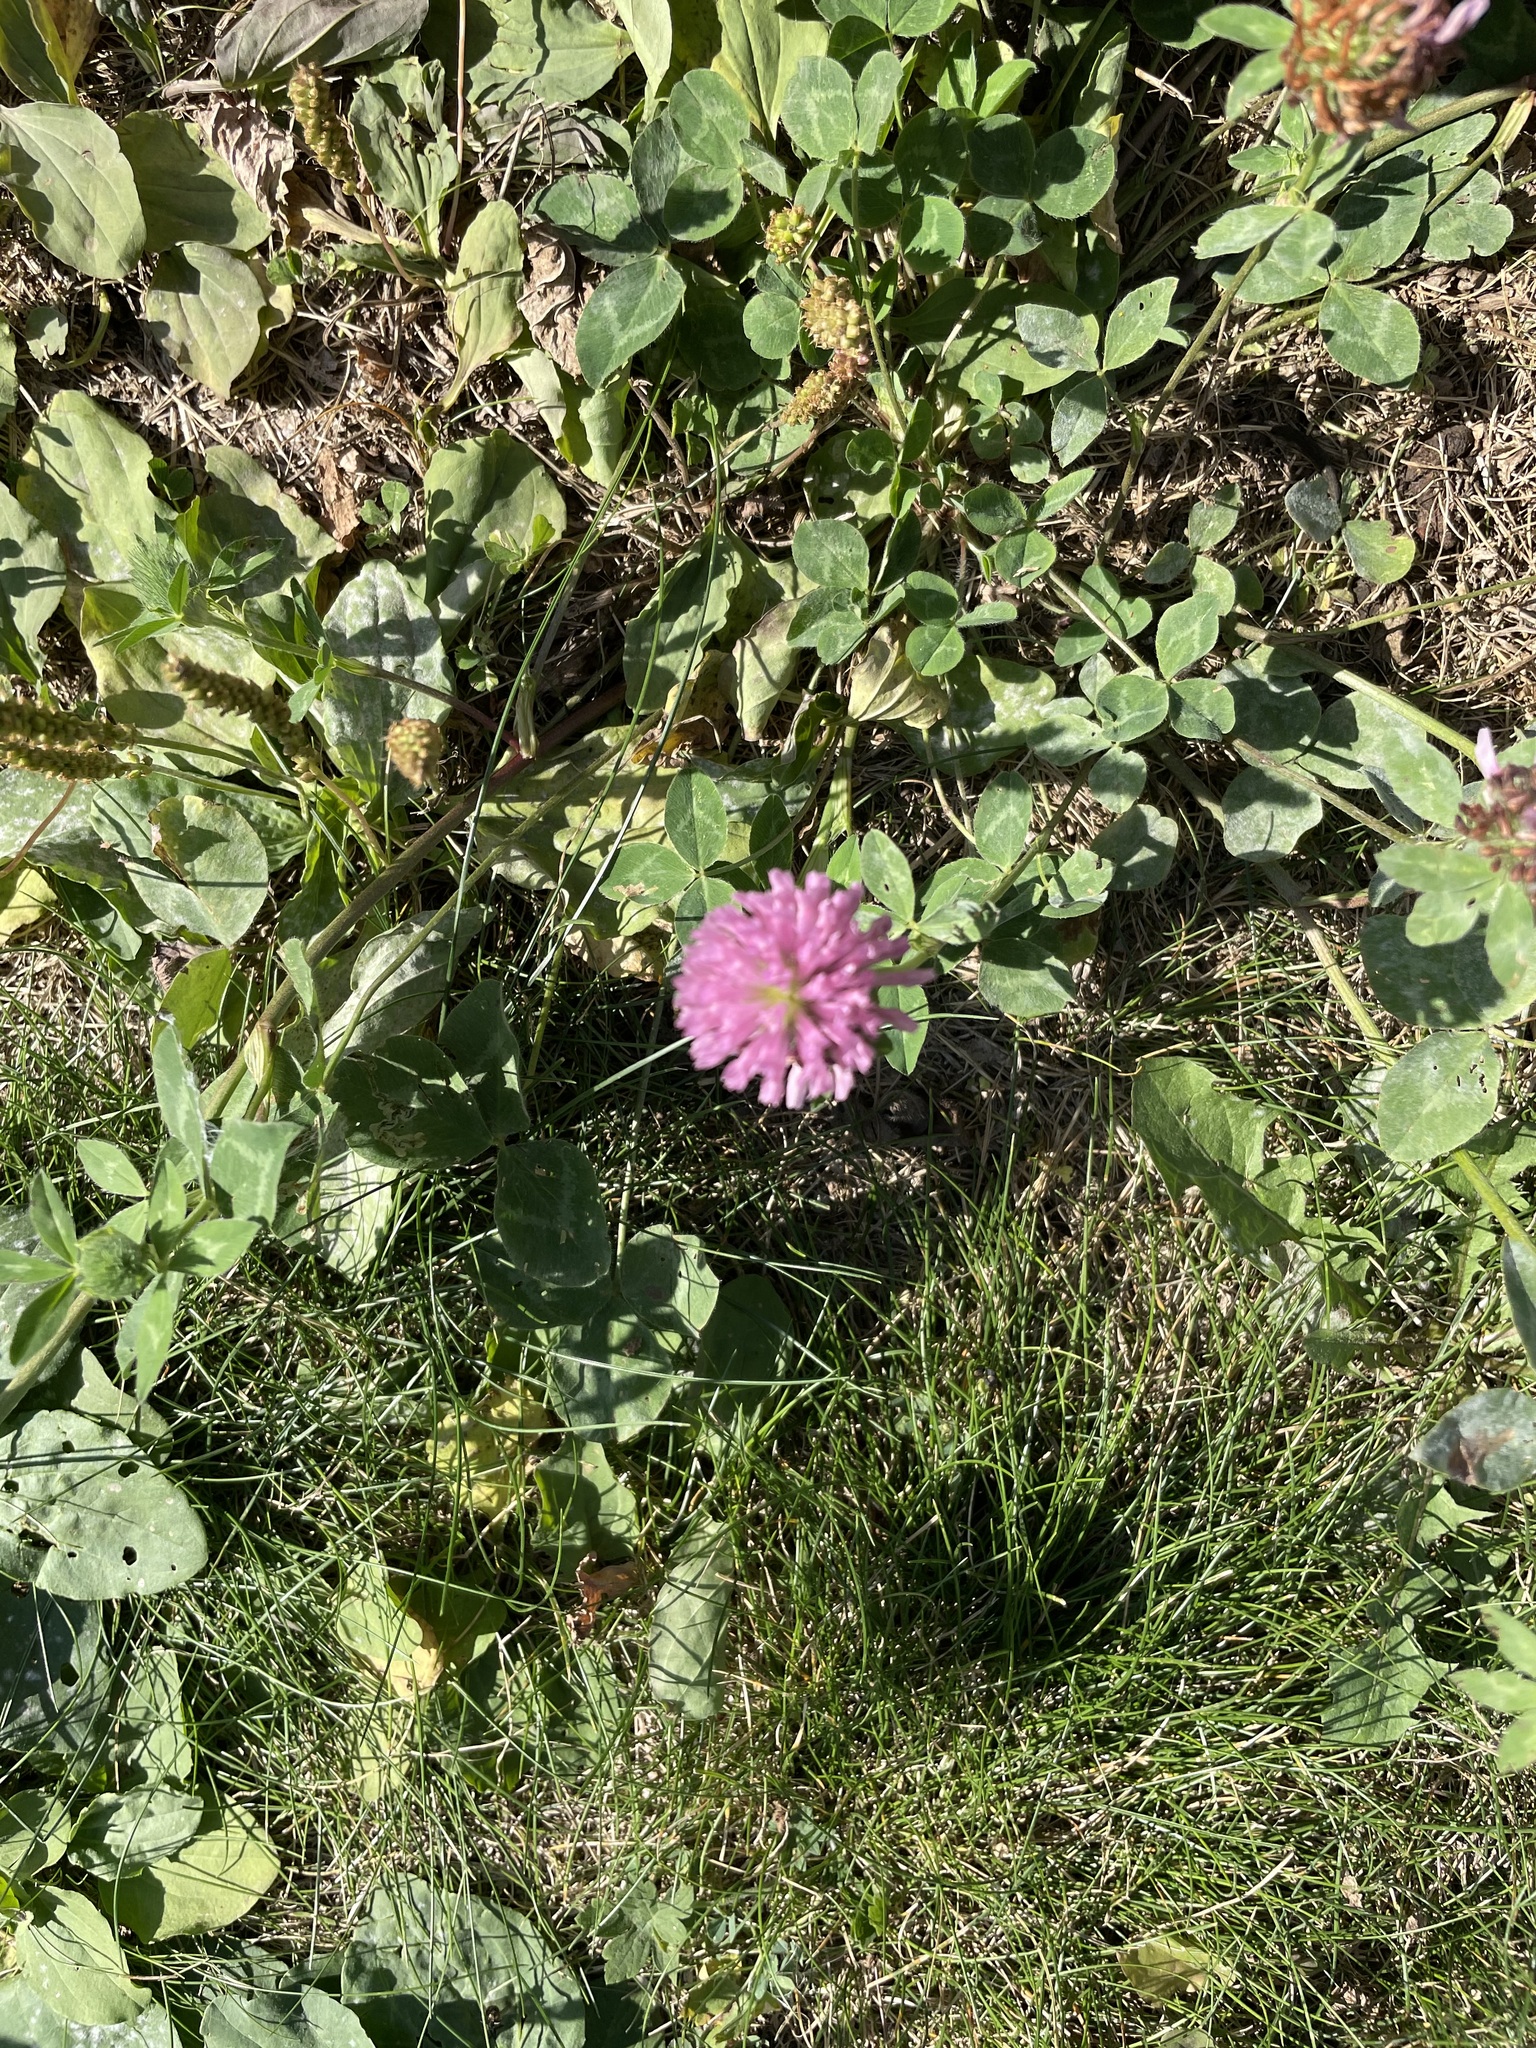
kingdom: Plantae
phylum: Tracheophyta
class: Magnoliopsida
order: Fabales
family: Fabaceae
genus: Trifolium
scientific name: Trifolium pratense
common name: Red clover
